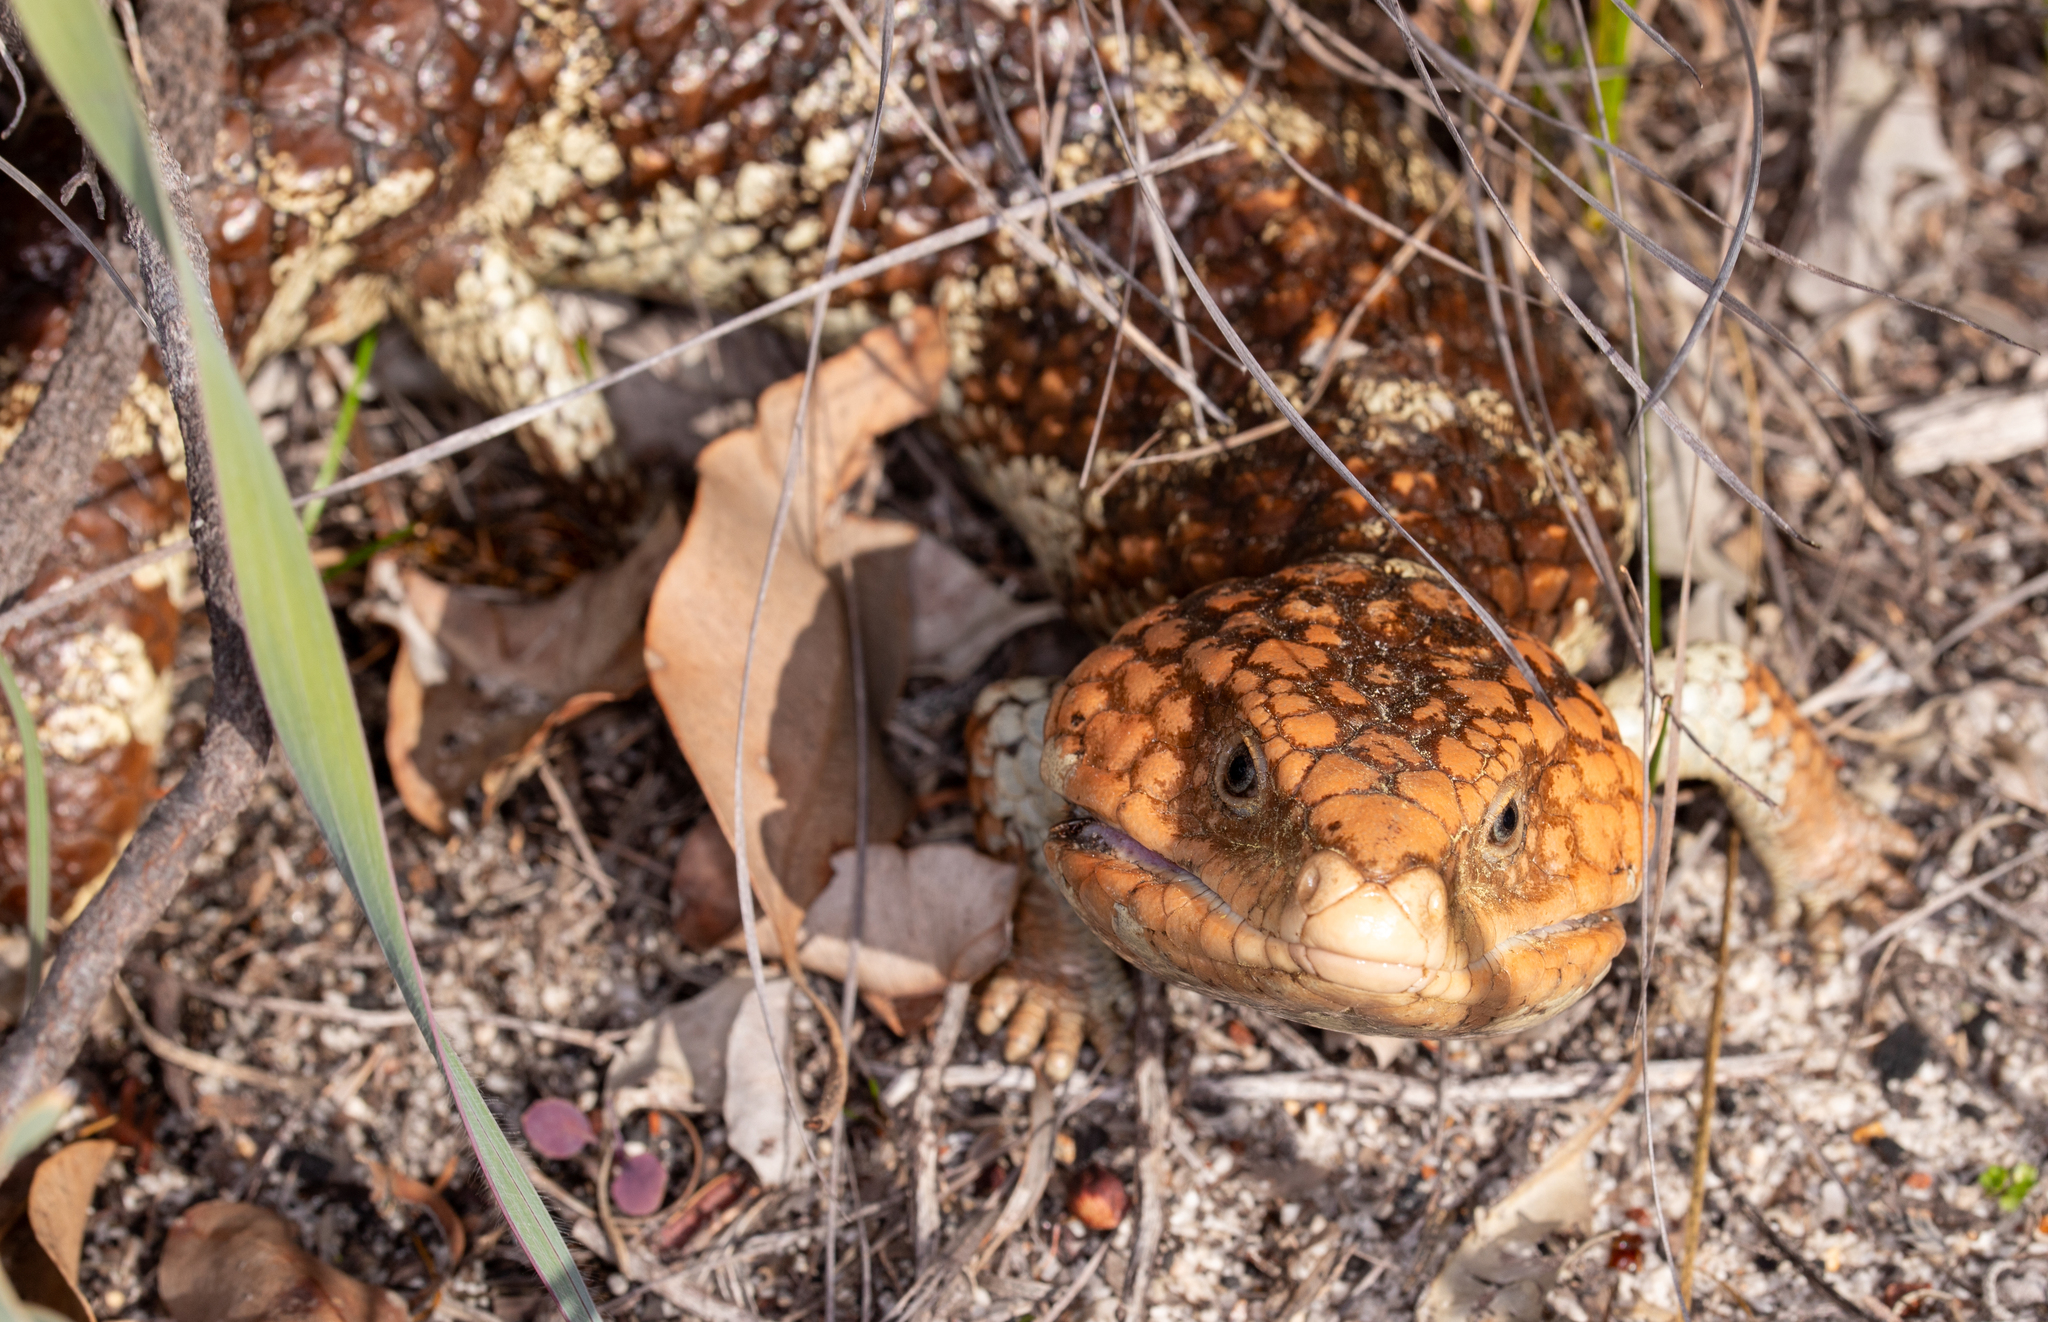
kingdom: Animalia
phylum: Chordata
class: Squamata
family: Scincidae
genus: Tiliqua
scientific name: Tiliqua rugosa
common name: Pinecone lizard
